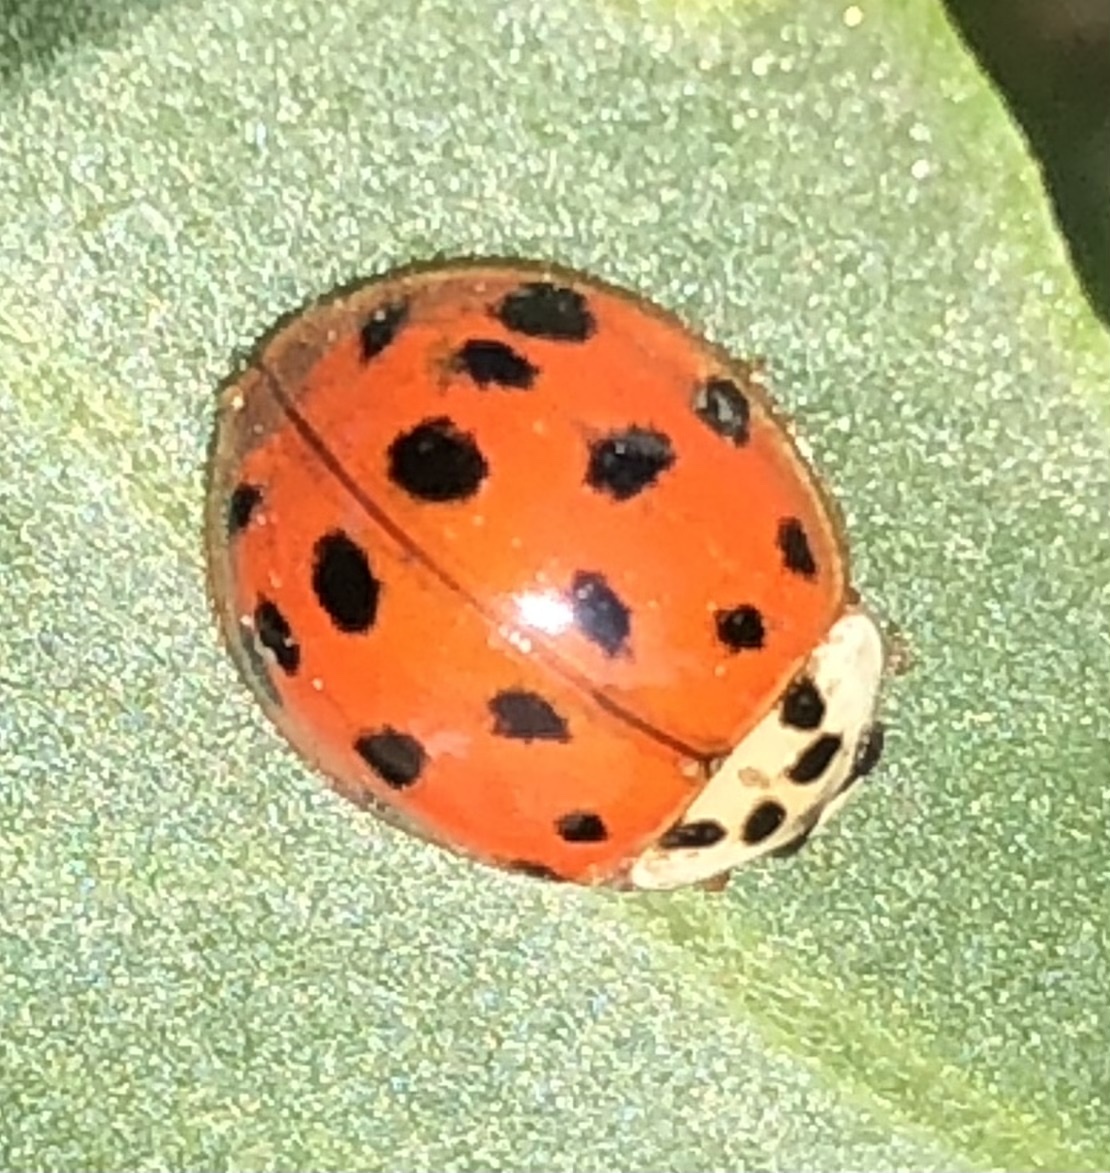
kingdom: Animalia
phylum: Arthropoda
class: Insecta
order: Coleoptera
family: Coccinellidae
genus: Harmonia
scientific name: Harmonia axyridis
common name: Harlequin ladybird
